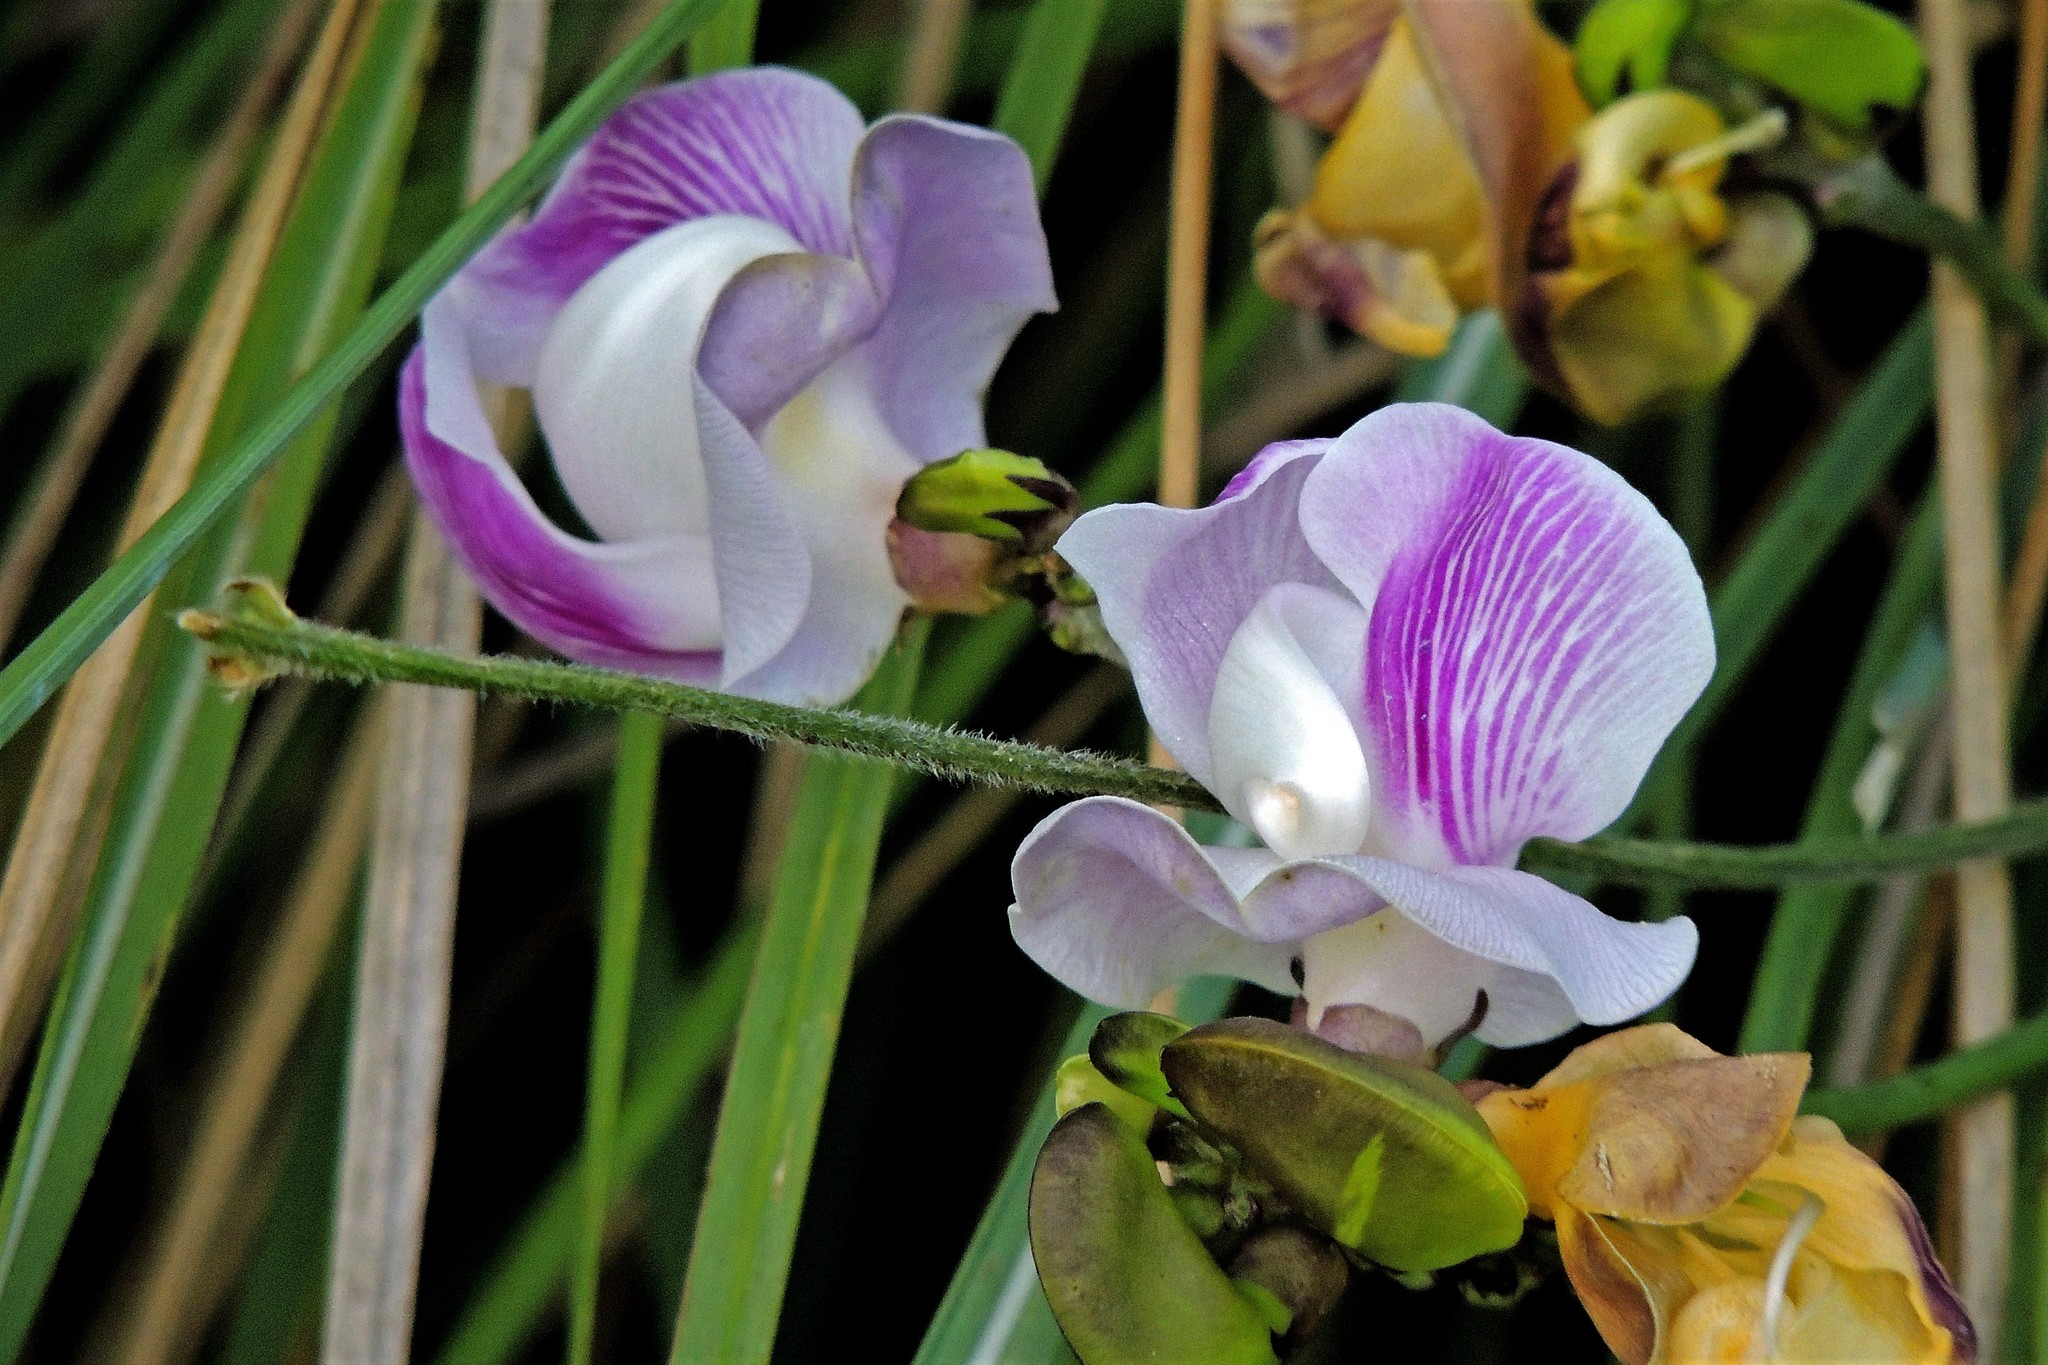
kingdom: Plantae
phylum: Tracheophyta
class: Magnoliopsida
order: Fabales
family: Fabaceae
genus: Leptospron
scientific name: Leptospron adenanthum
